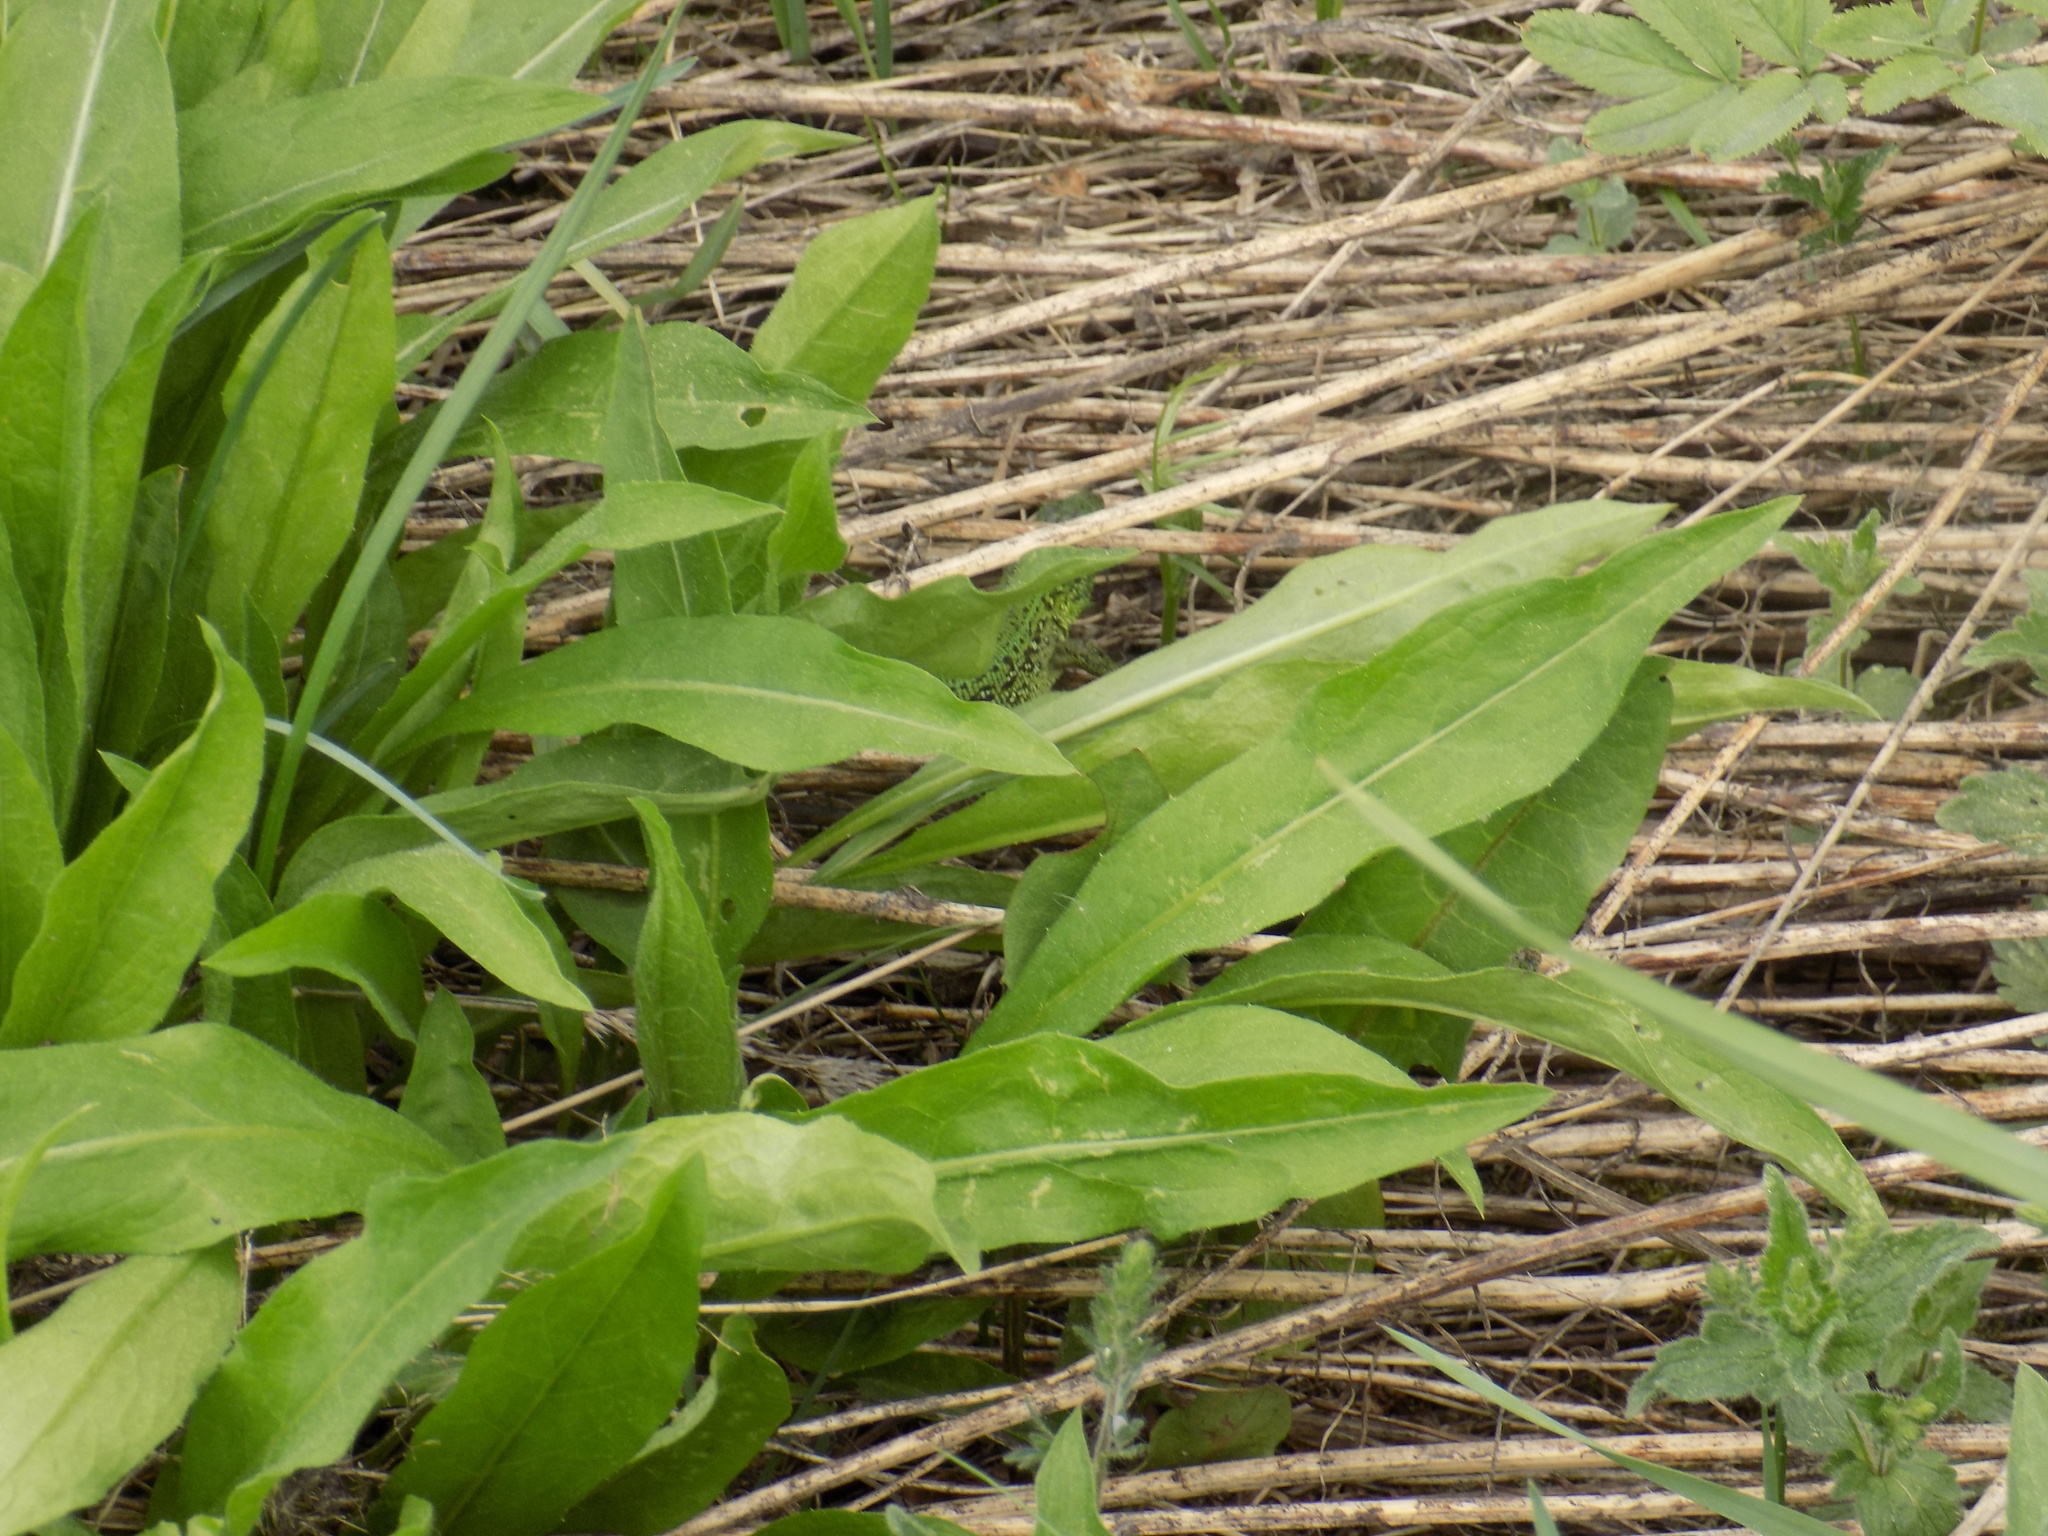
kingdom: Animalia
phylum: Chordata
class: Squamata
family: Lacertidae
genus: Lacerta
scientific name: Lacerta agilis
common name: Sand lizard
